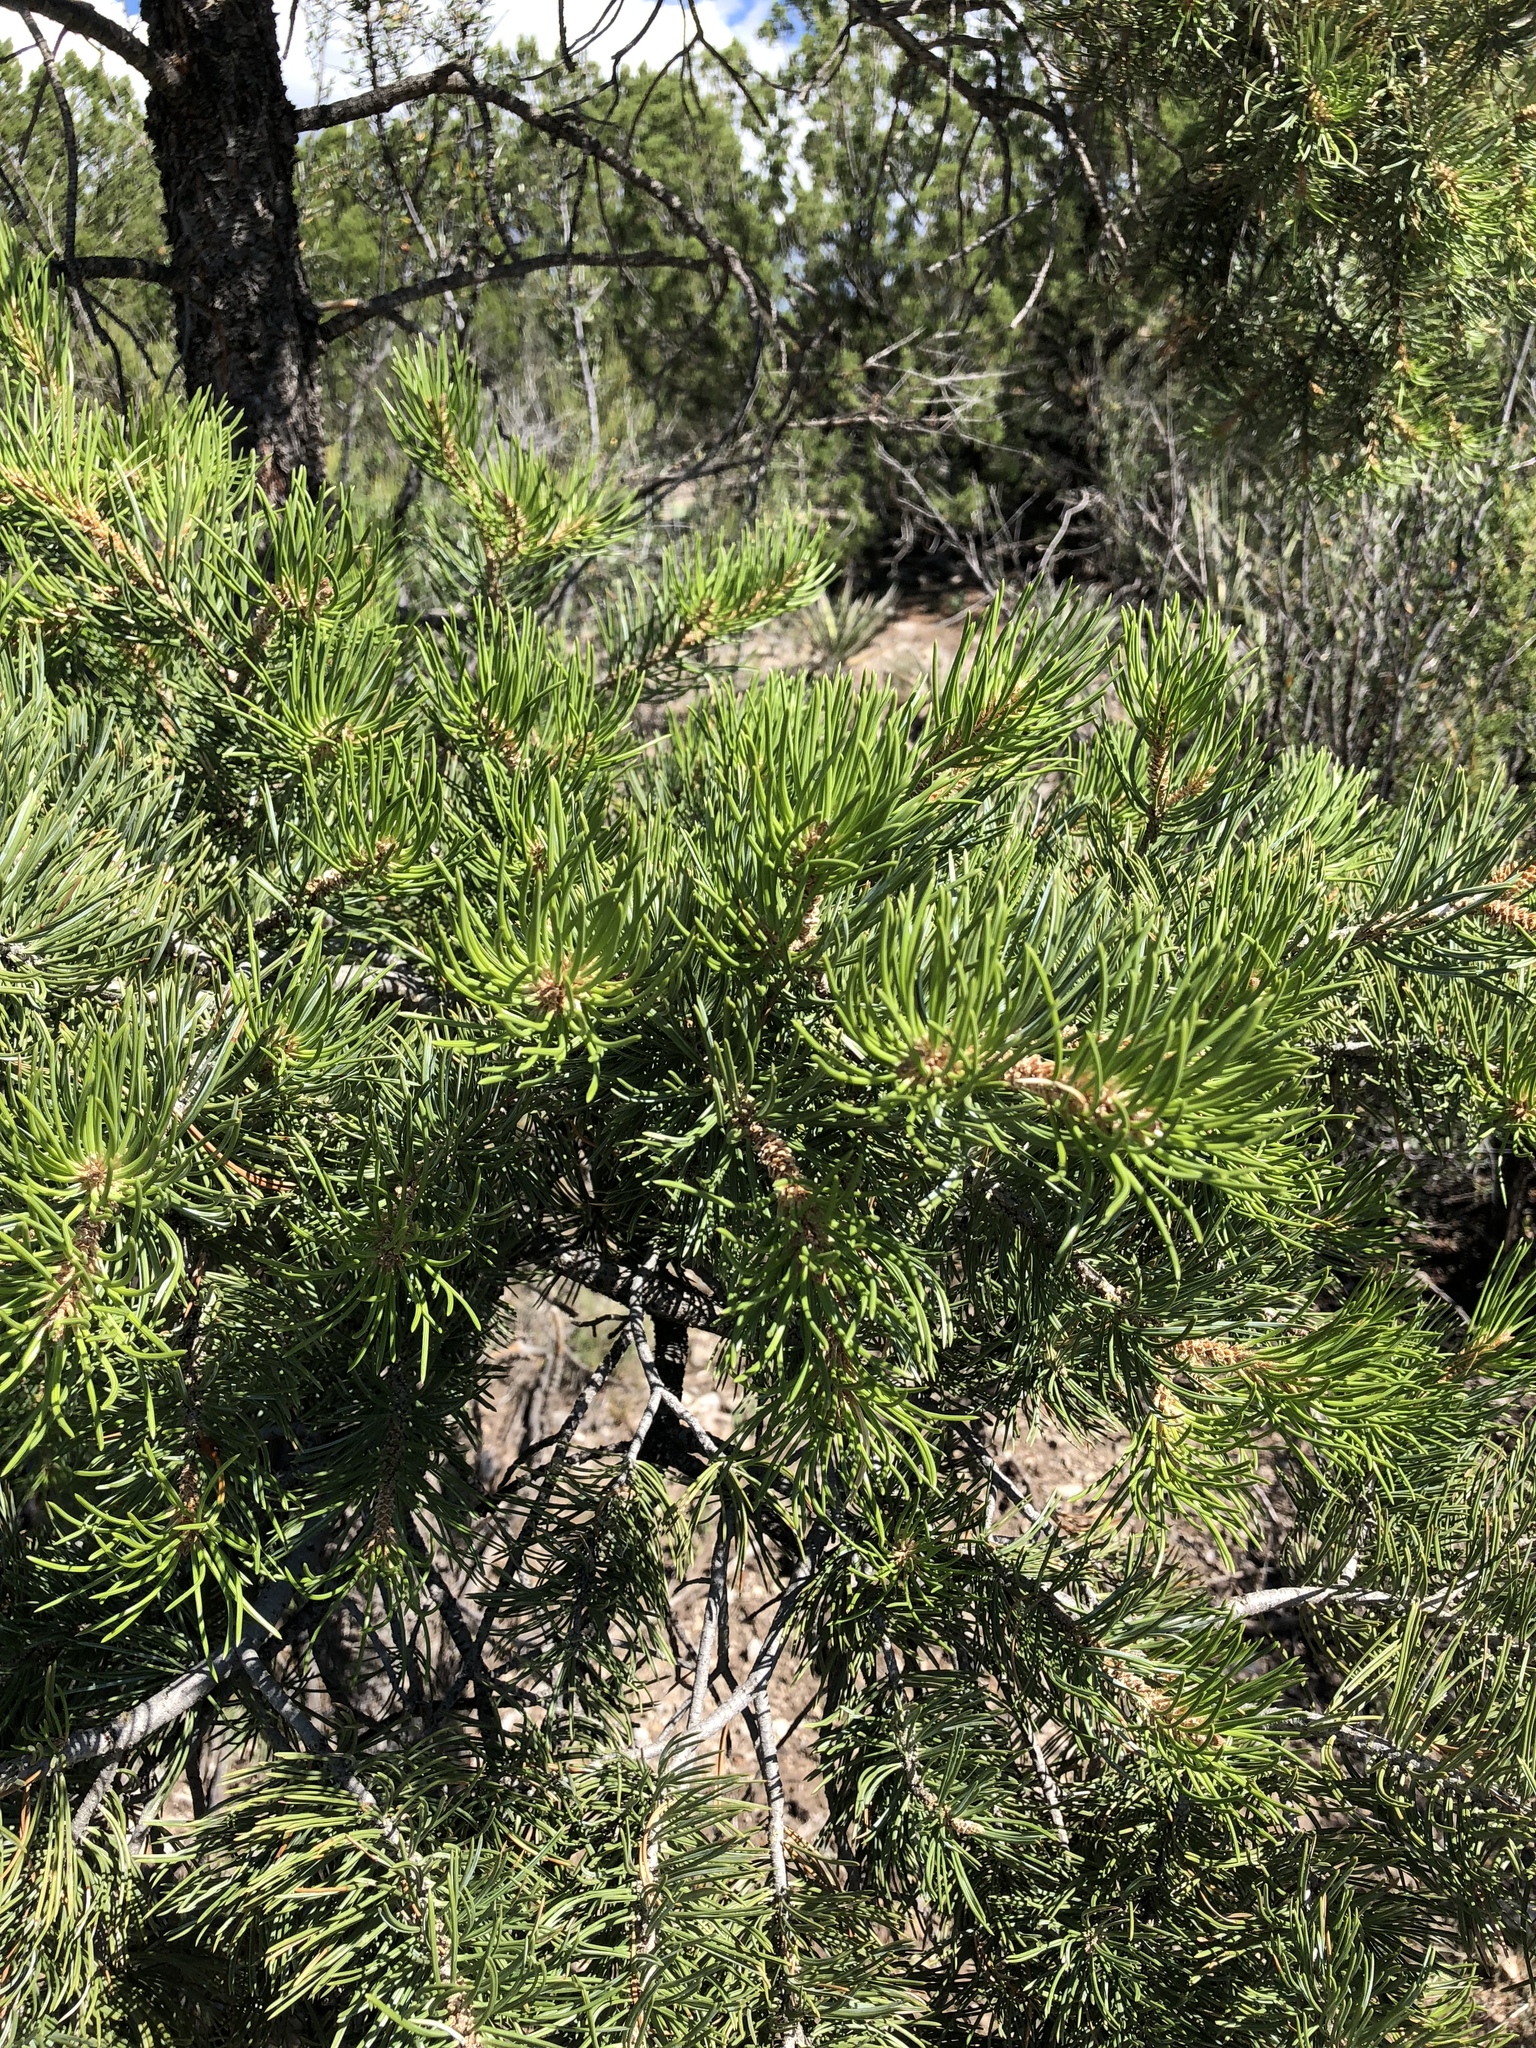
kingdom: Plantae
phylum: Tracheophyta
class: Pinopsida
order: Pinales
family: Pinaceae
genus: Pinus
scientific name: Pinus edulis
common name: Colorado pinyon
